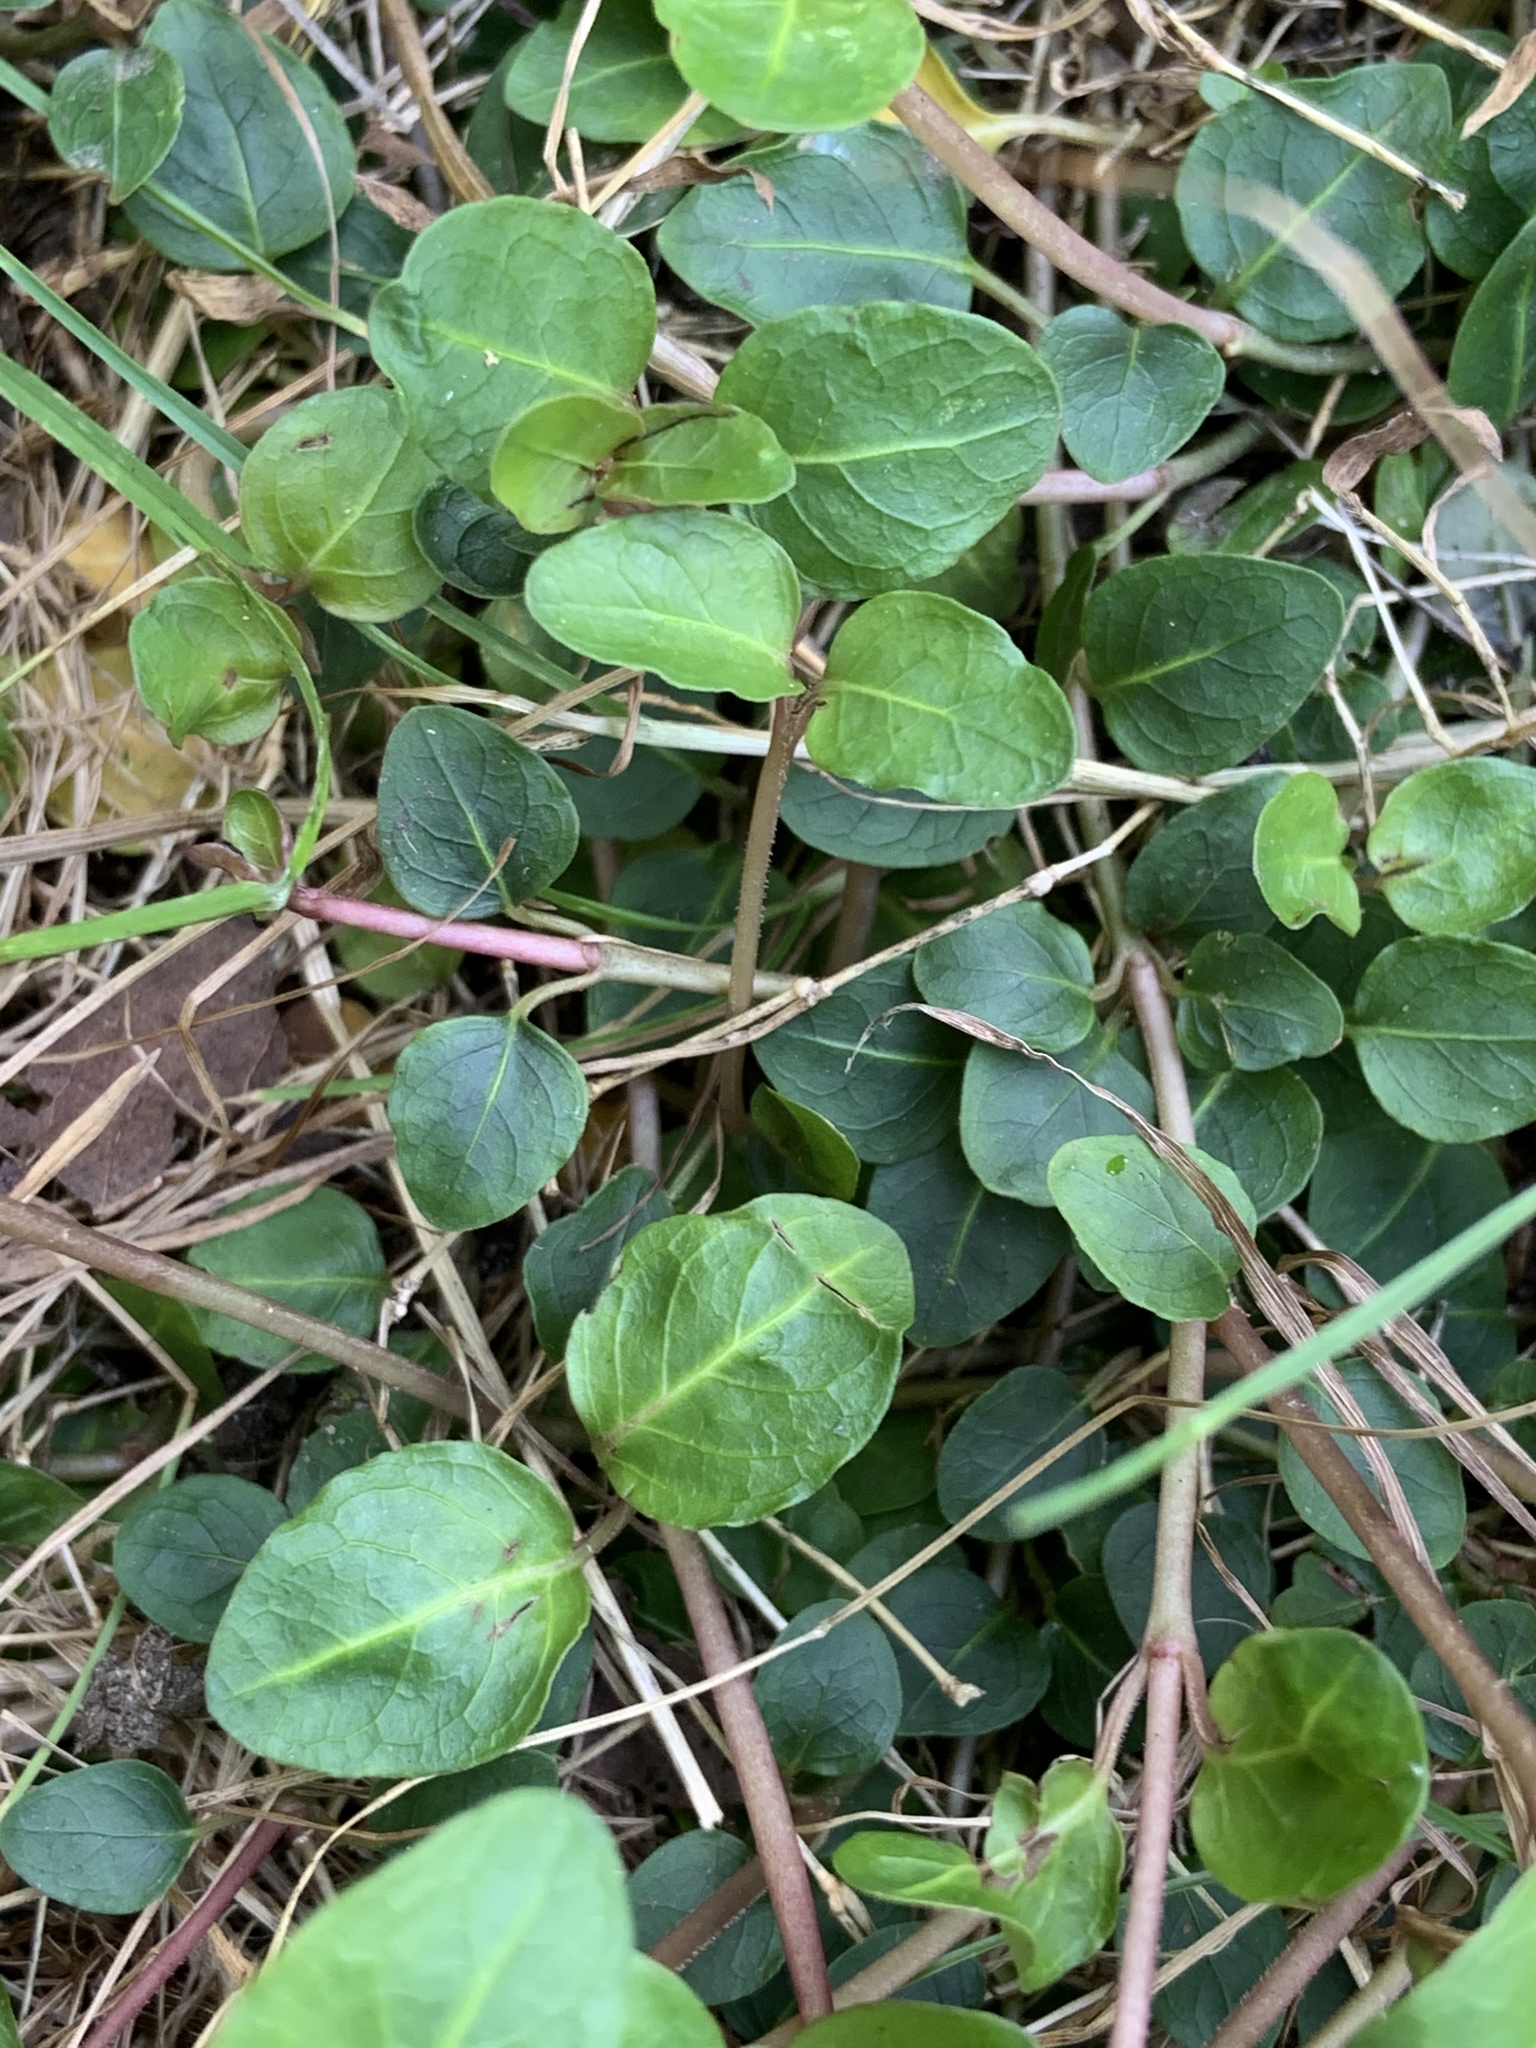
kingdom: Plantae
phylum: Tracheophyta
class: Magnoliopsida
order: Gentianales
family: Rubiaceae
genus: Mitchella
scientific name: Mitchella repens
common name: Partridge-berry
